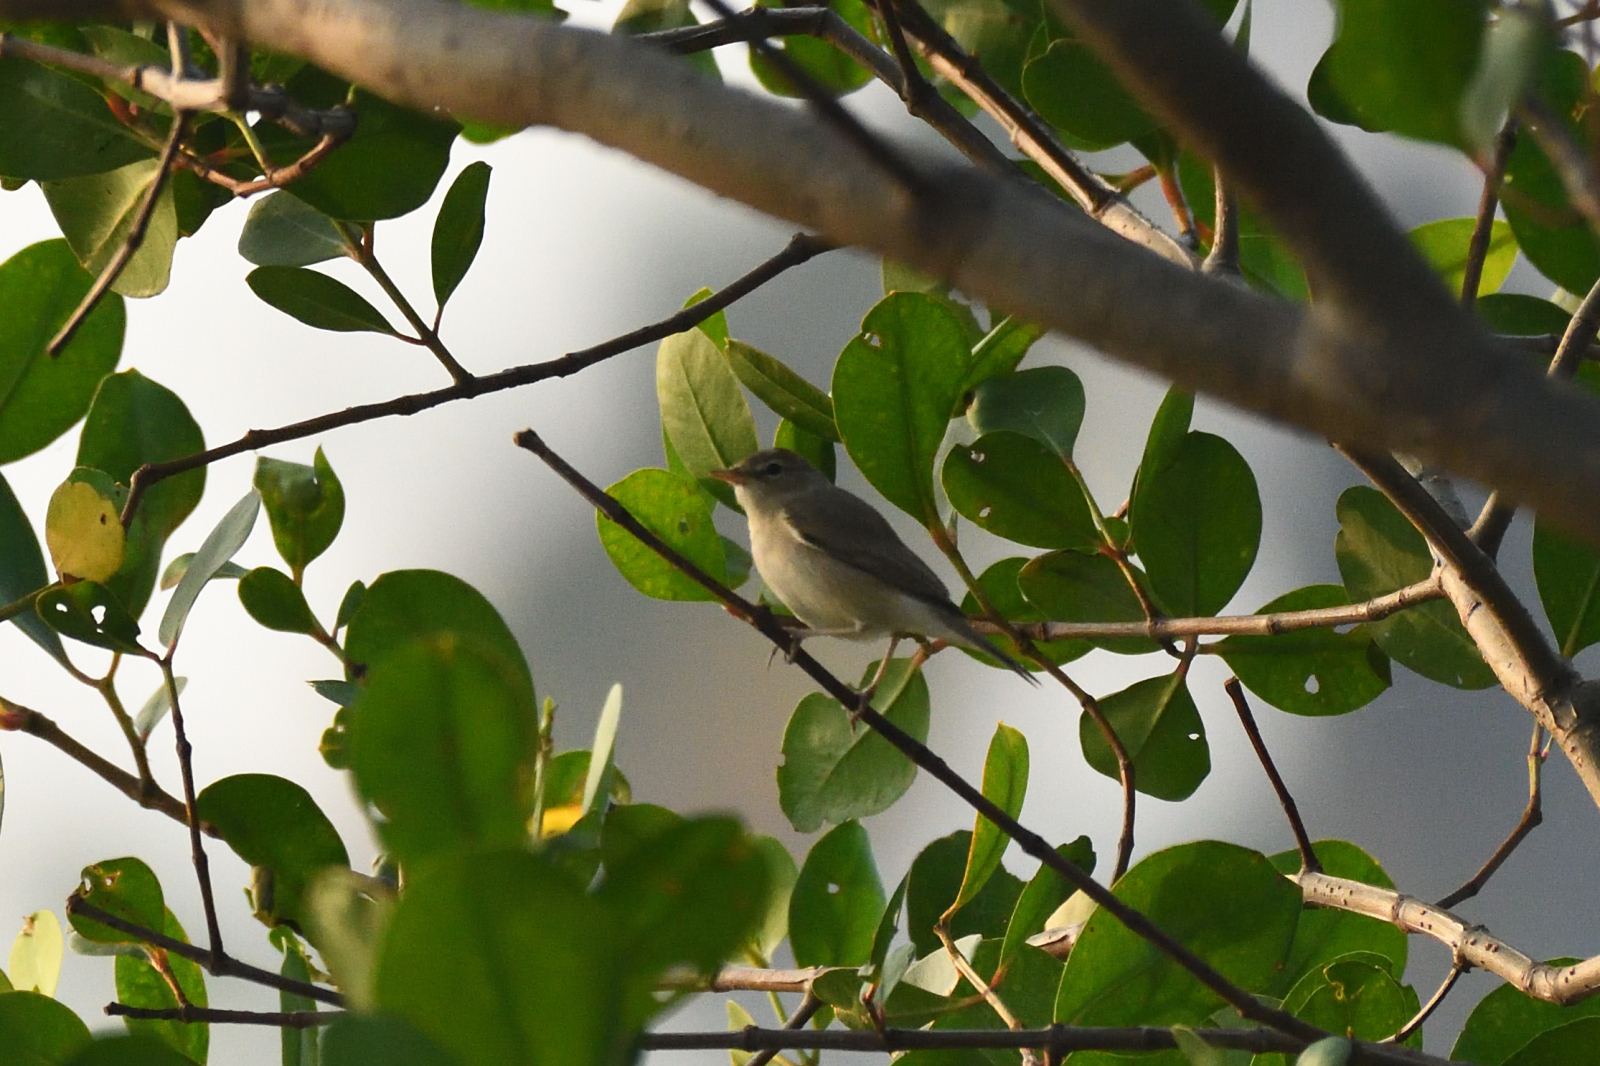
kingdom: Animalia
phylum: Chordata
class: Aves
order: Passeriformes
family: Acrocephalidae
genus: Acrocephalus
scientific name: Acrocephalus dumetorum
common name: Blyth's reed warbler
